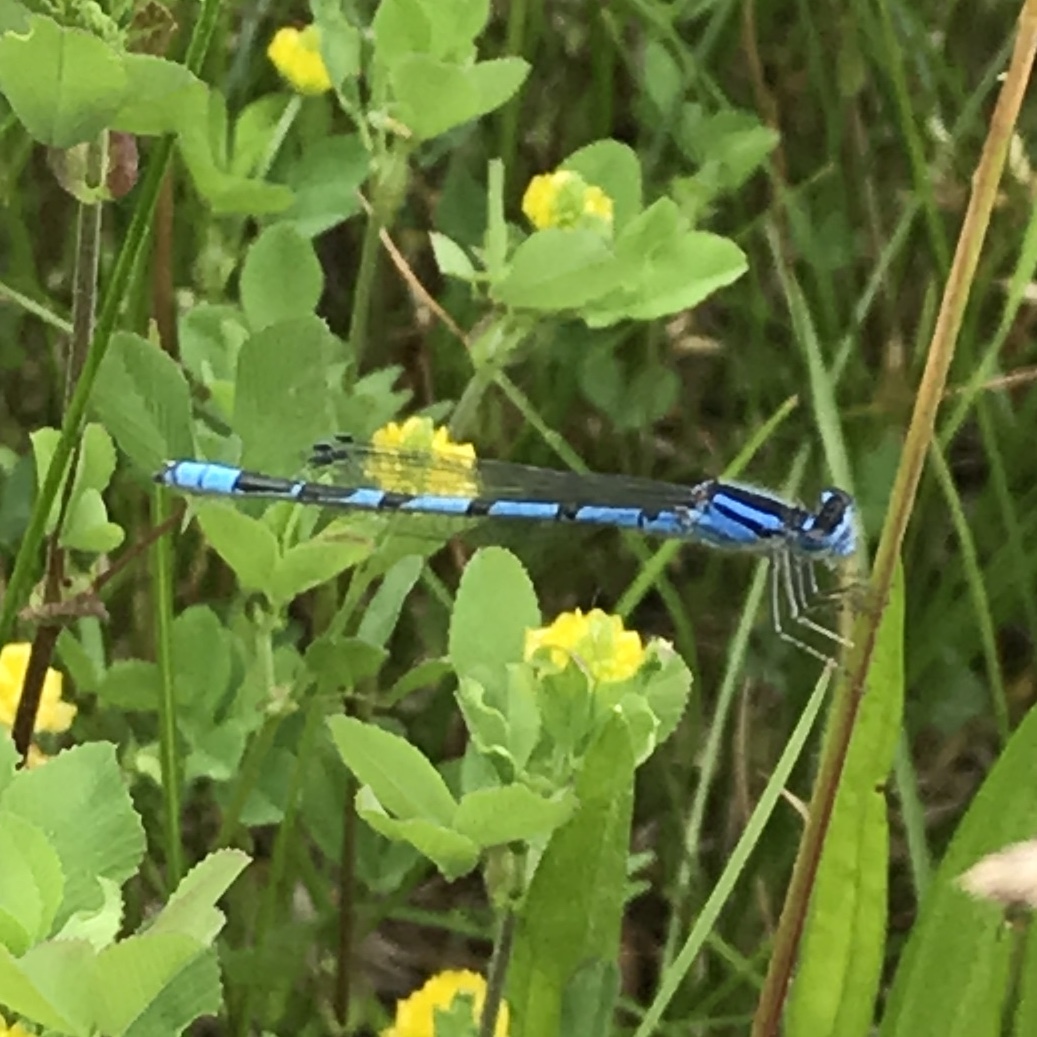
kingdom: Animalia
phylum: Arthropoda
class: Insecta
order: Odonata
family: Coenagrionidae
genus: Enallagma
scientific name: Enallagma civile
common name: Damselfly
